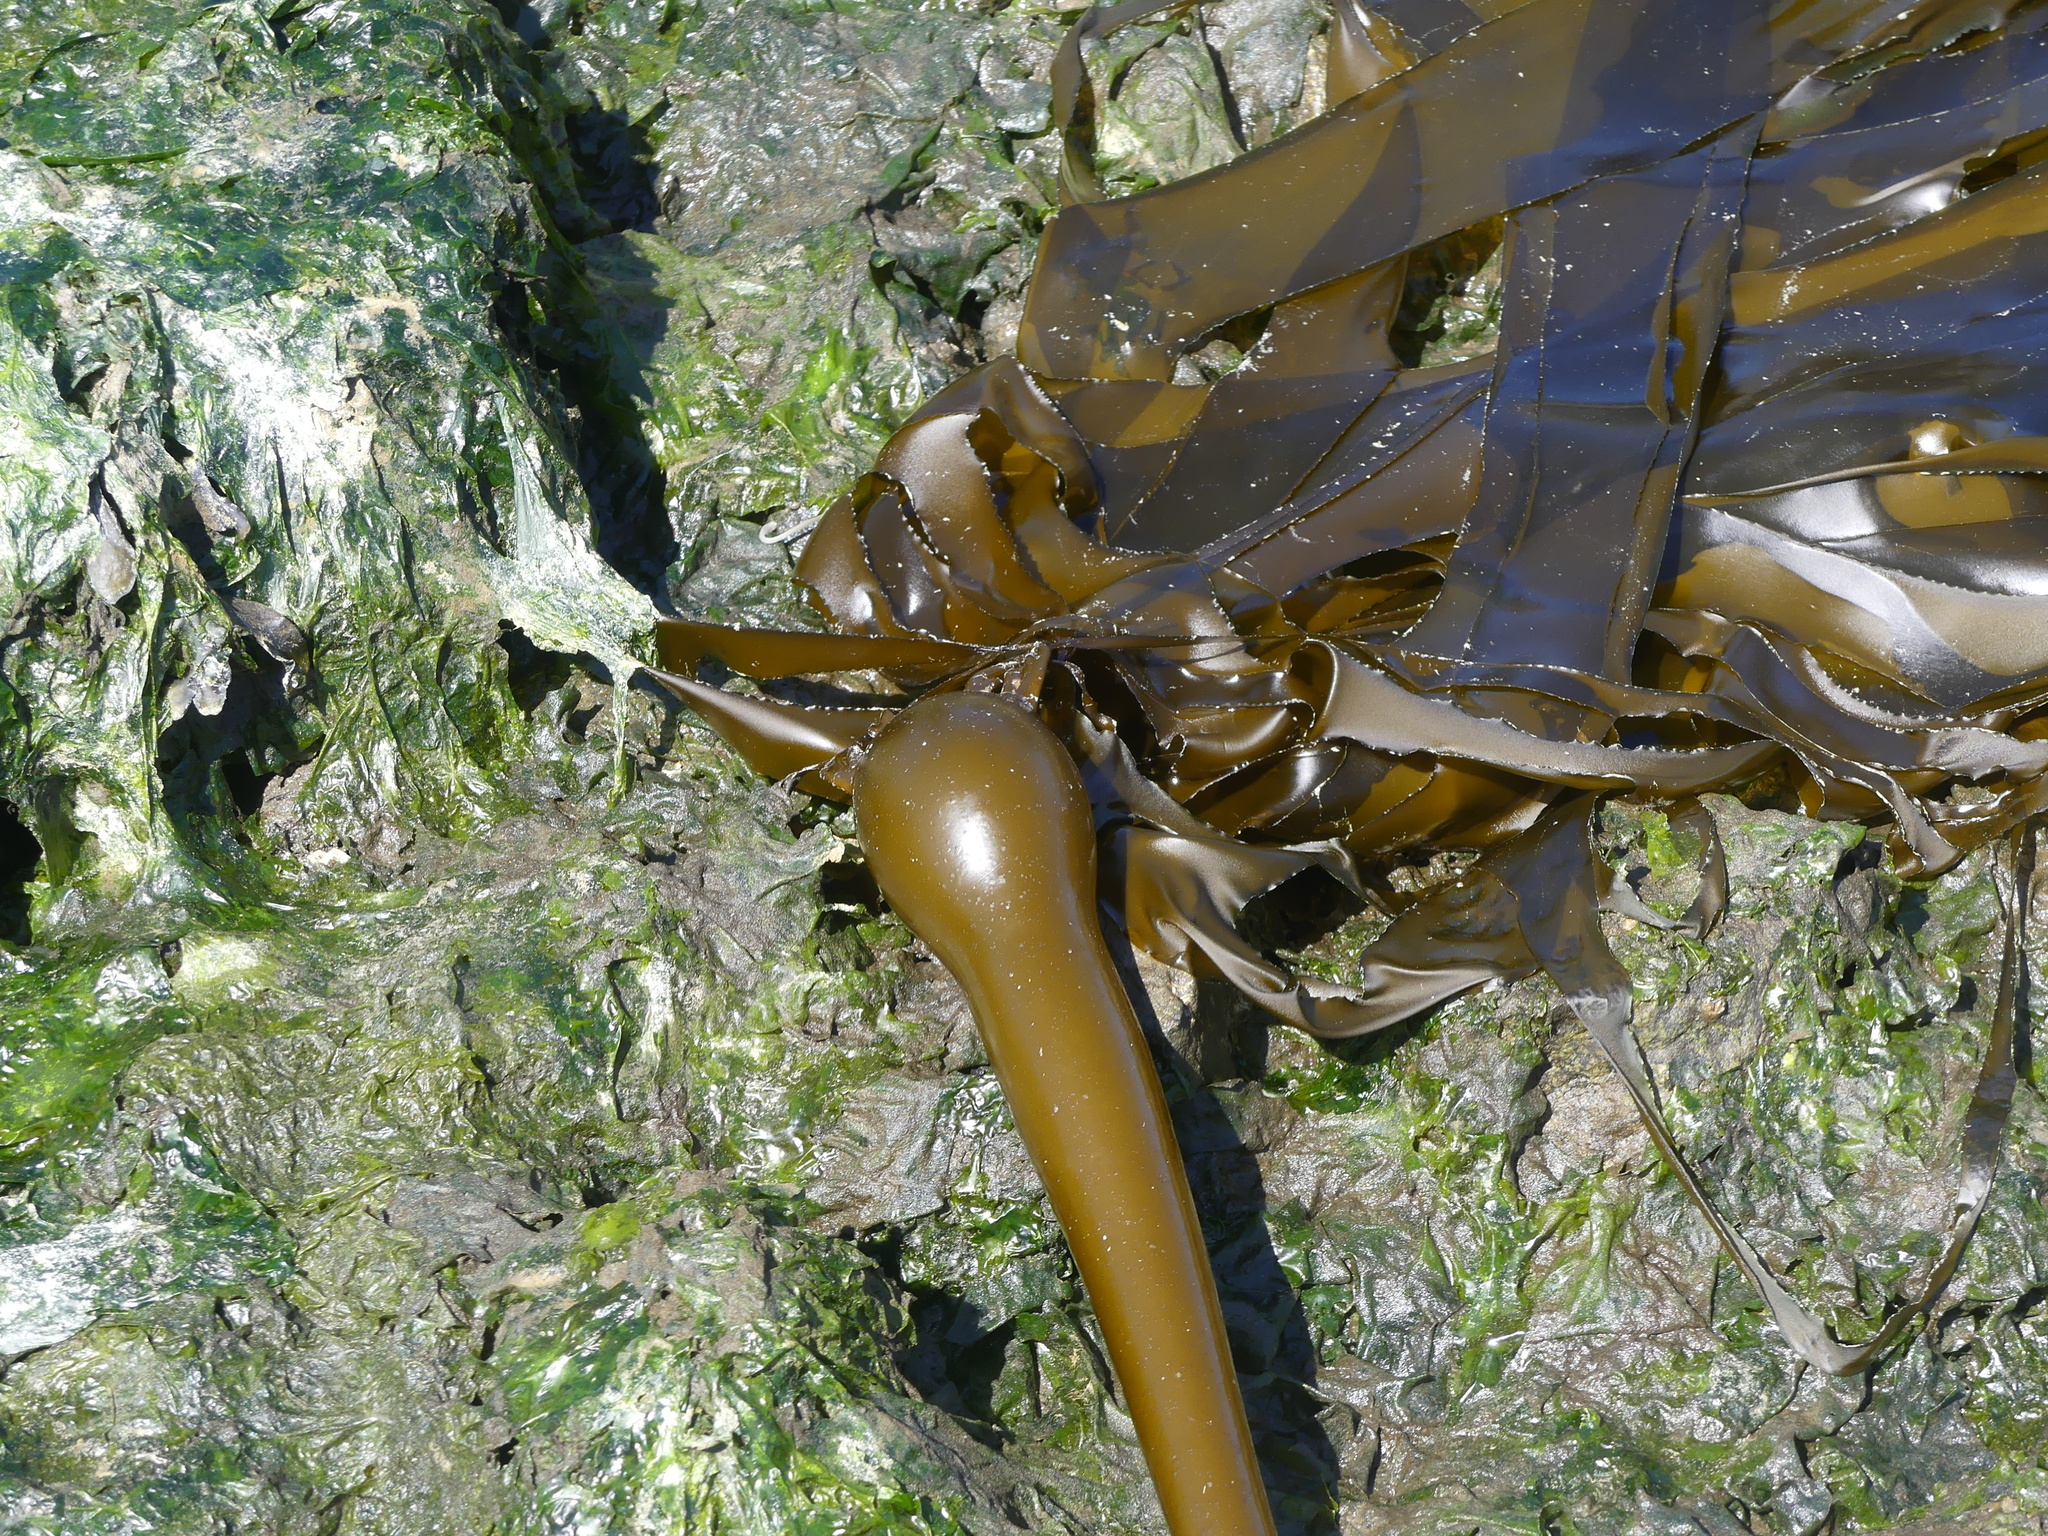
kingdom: Chromista
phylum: Ochrophyta
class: Phaeophyceae
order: Laminariales
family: Laminariaceae
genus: Nereocystis
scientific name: Nereocystis luetkeana
